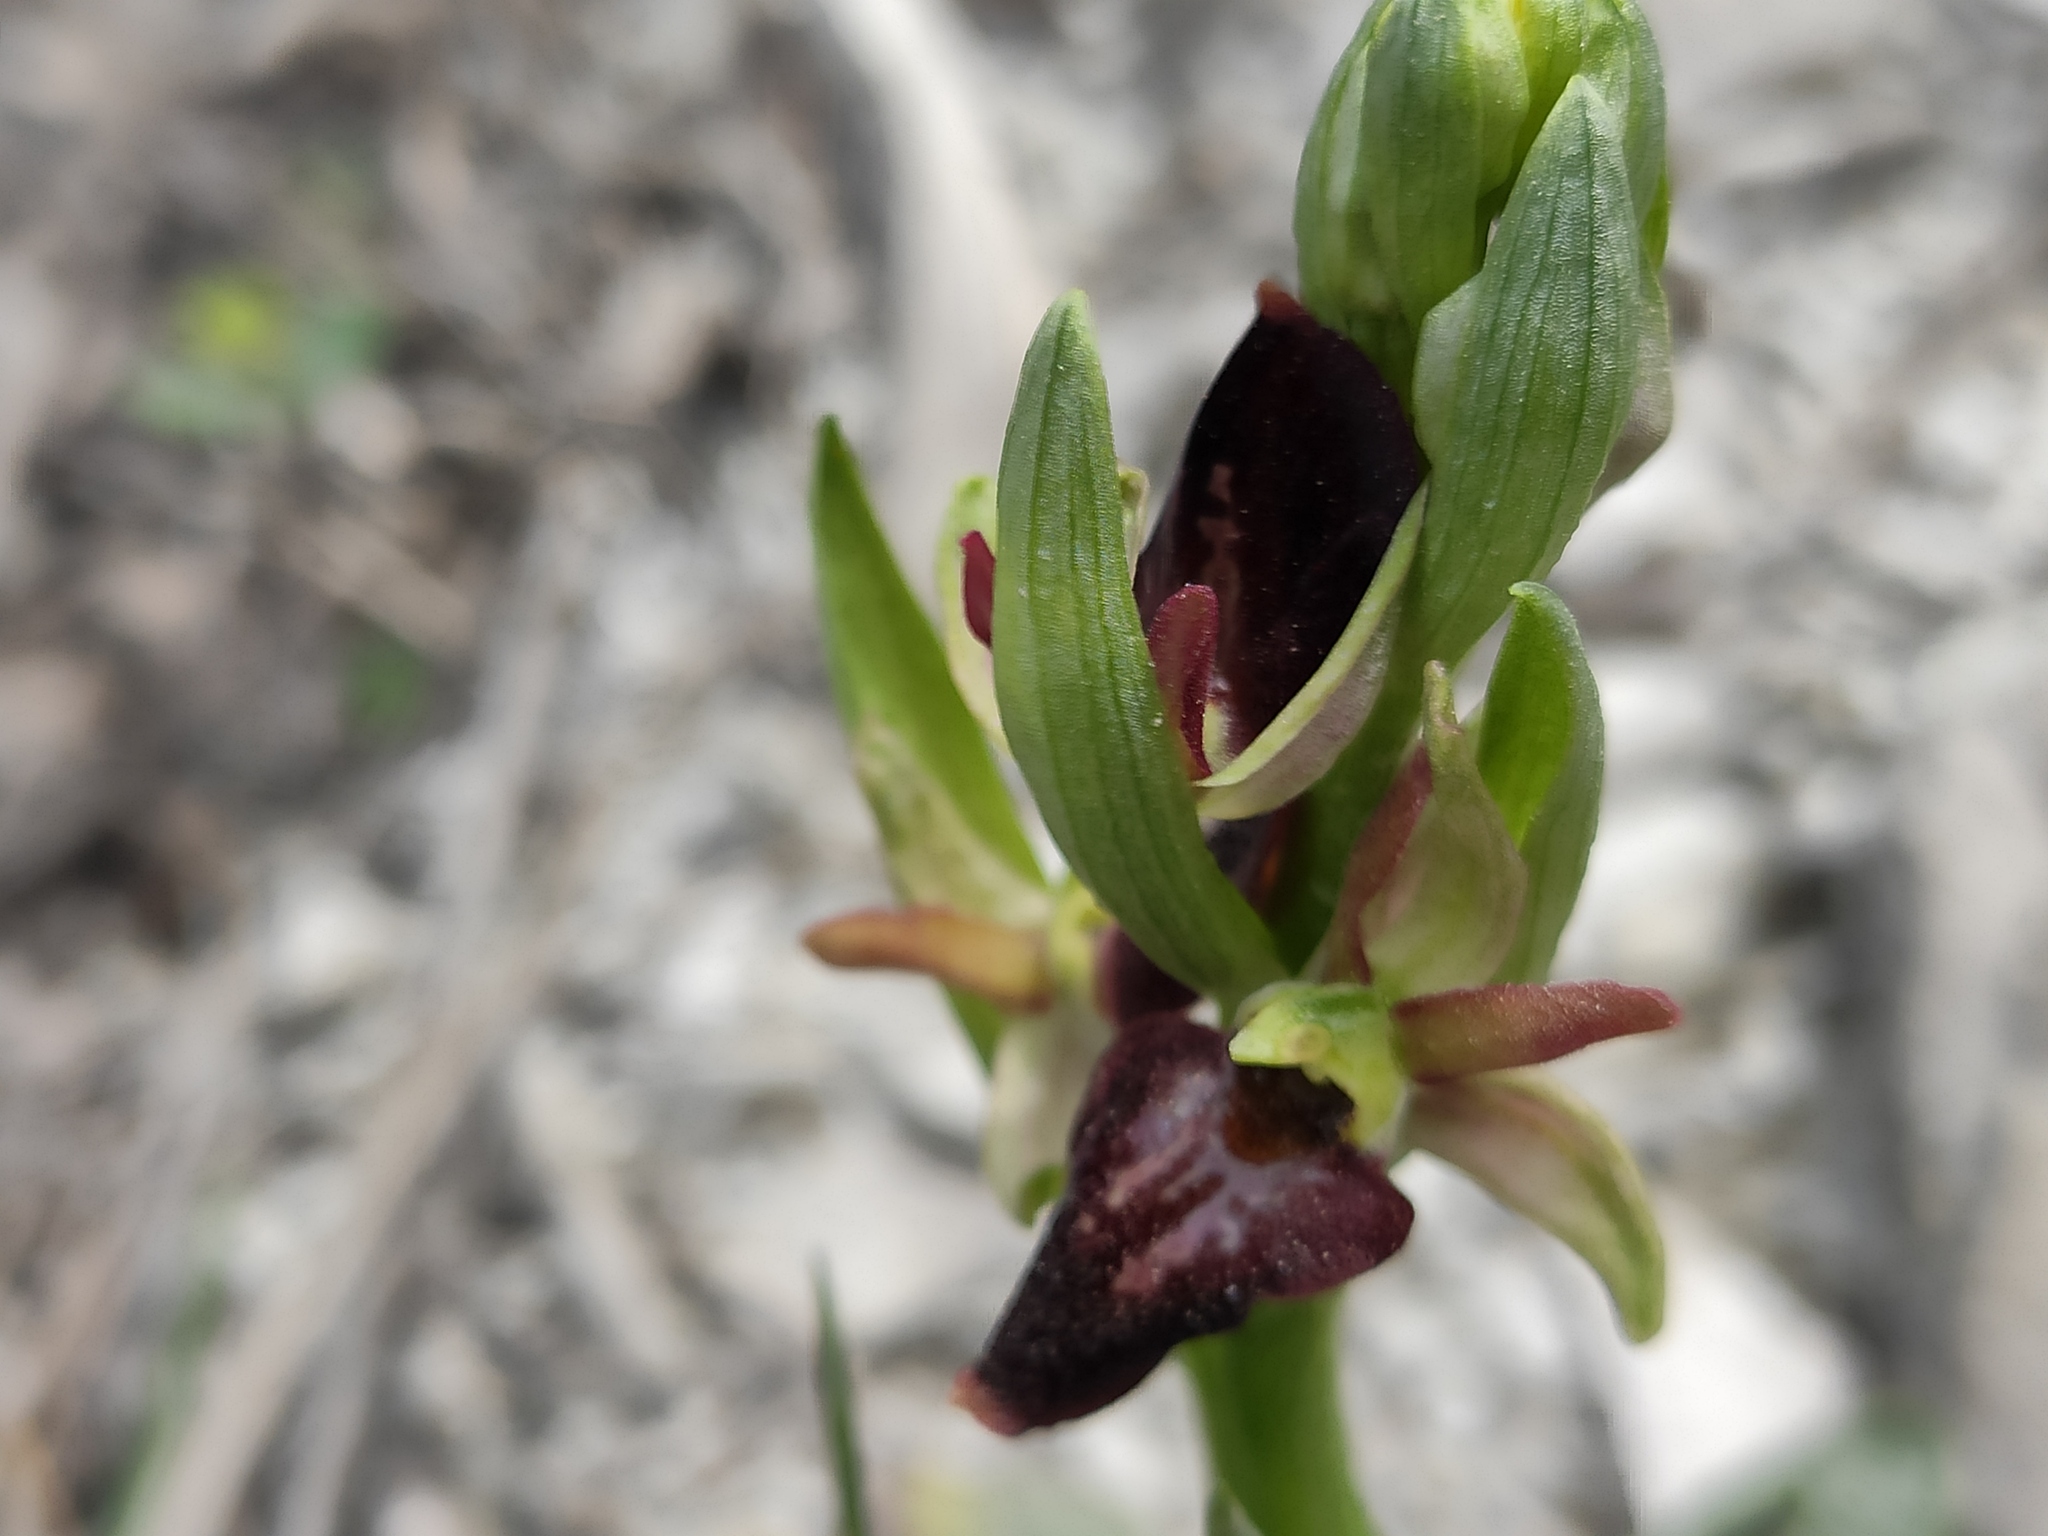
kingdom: Plantae
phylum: Tracheophyta
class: Liliopsida
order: Asparagales
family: Orchidaceae
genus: Ophrys
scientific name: Ophrys sphegodes
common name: Early spider-orchid
